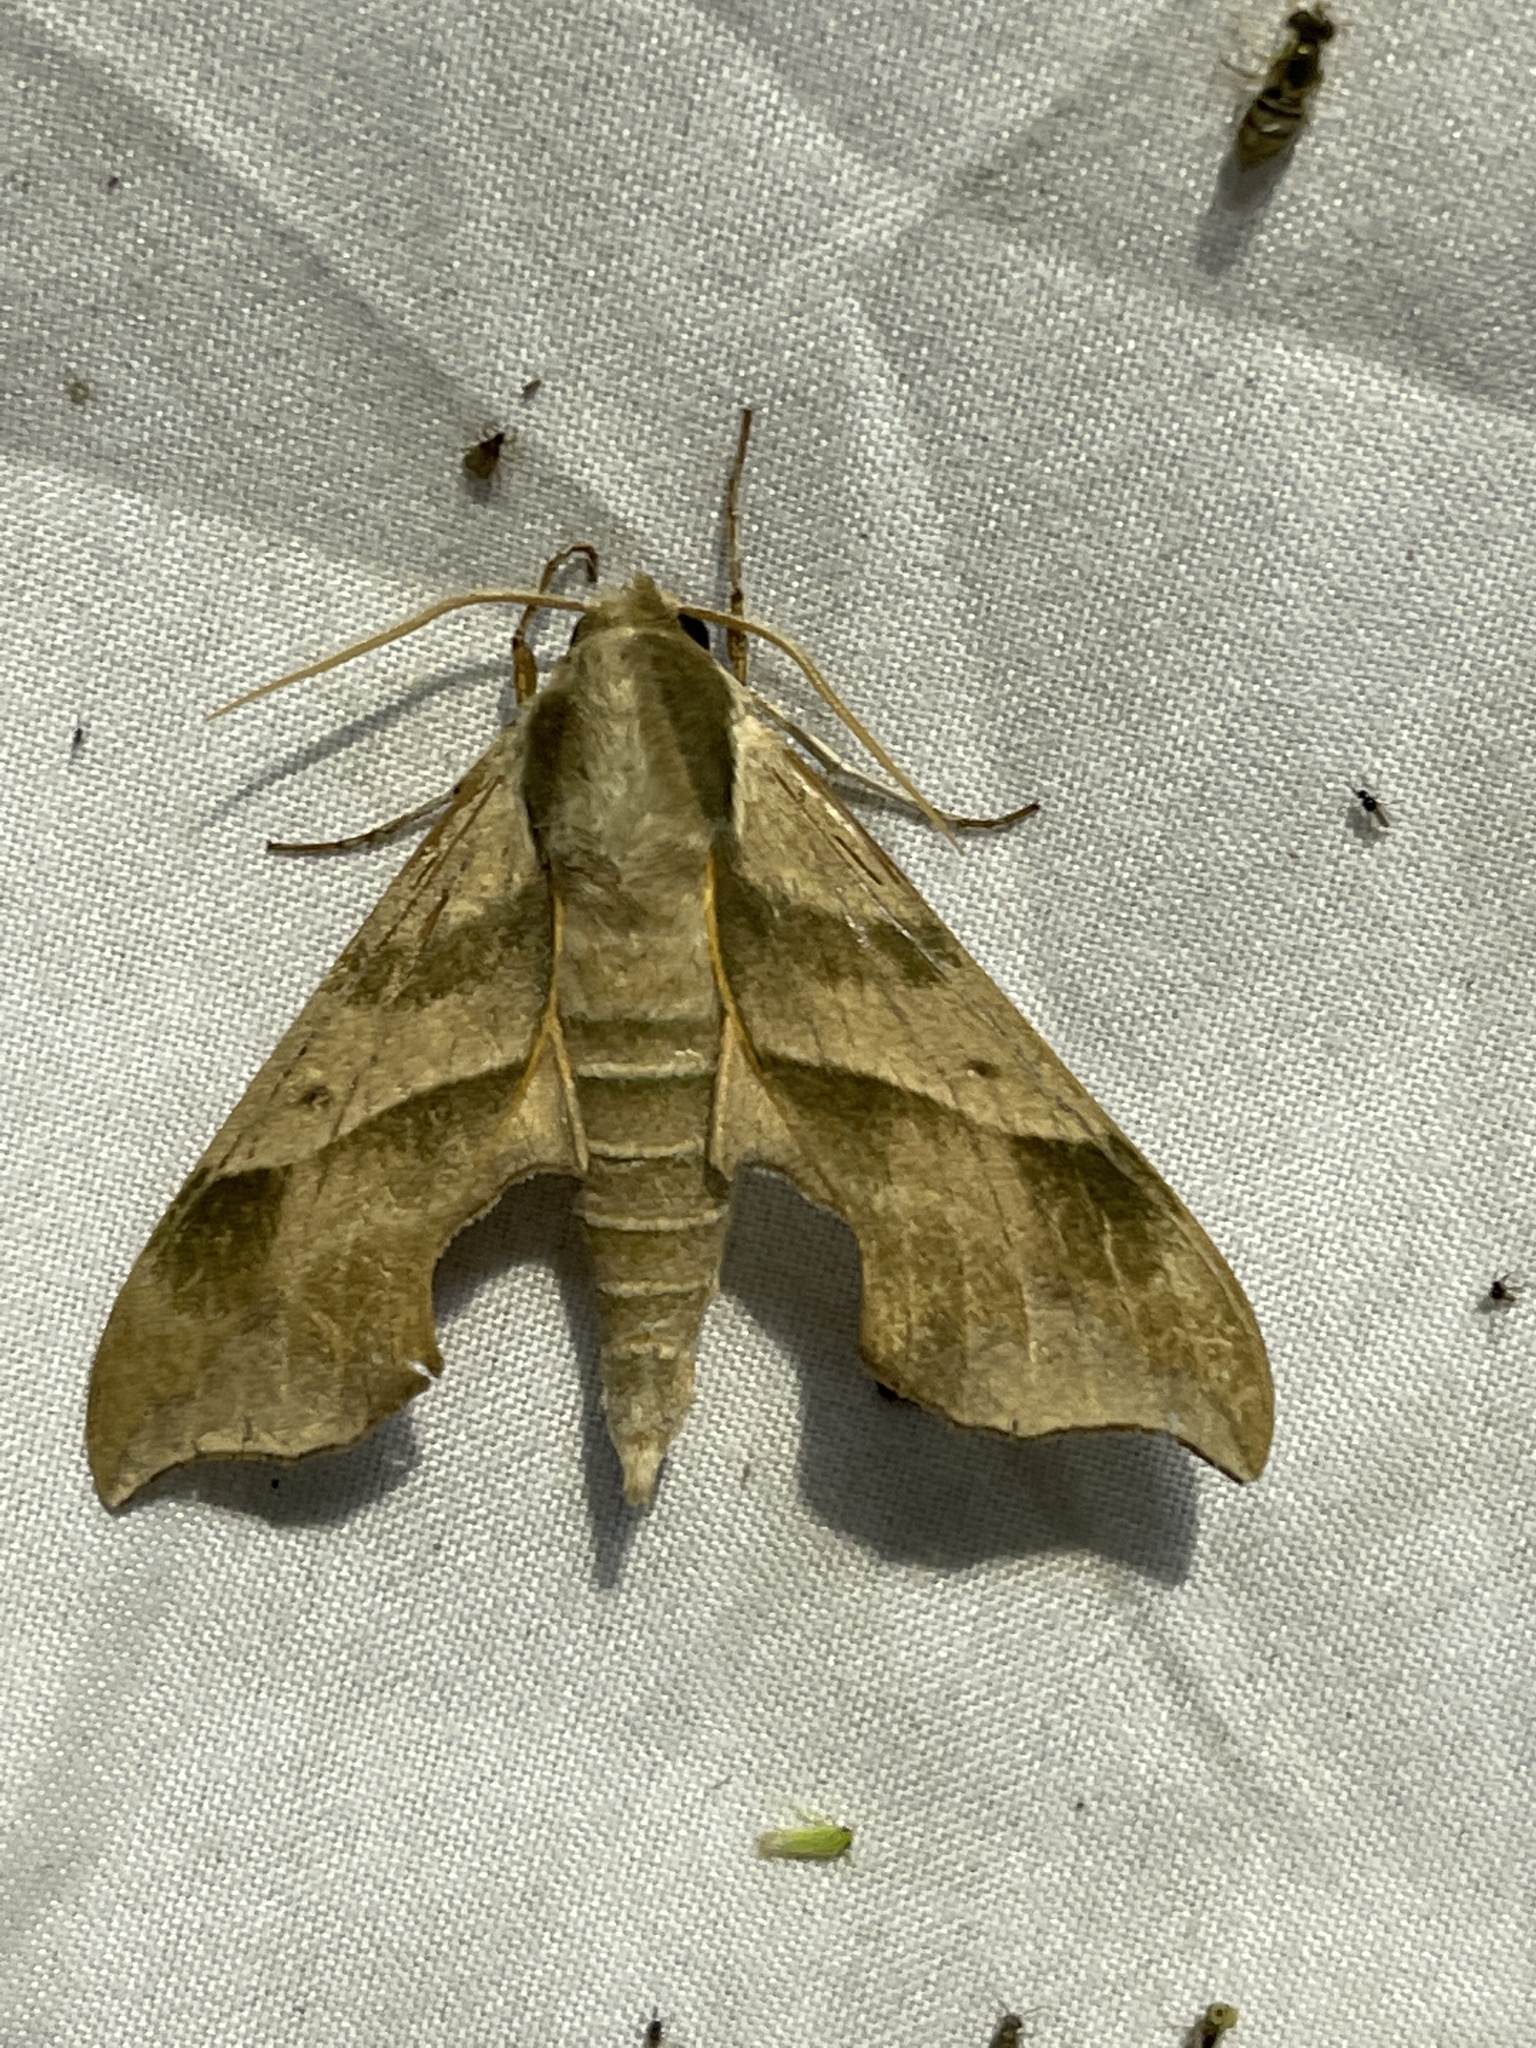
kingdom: Animalia
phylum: Arthropoda
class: Insecta
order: Lepidoptera
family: Sphingidae
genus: Darapsa
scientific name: Darapsa myron
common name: Hog sphinx
